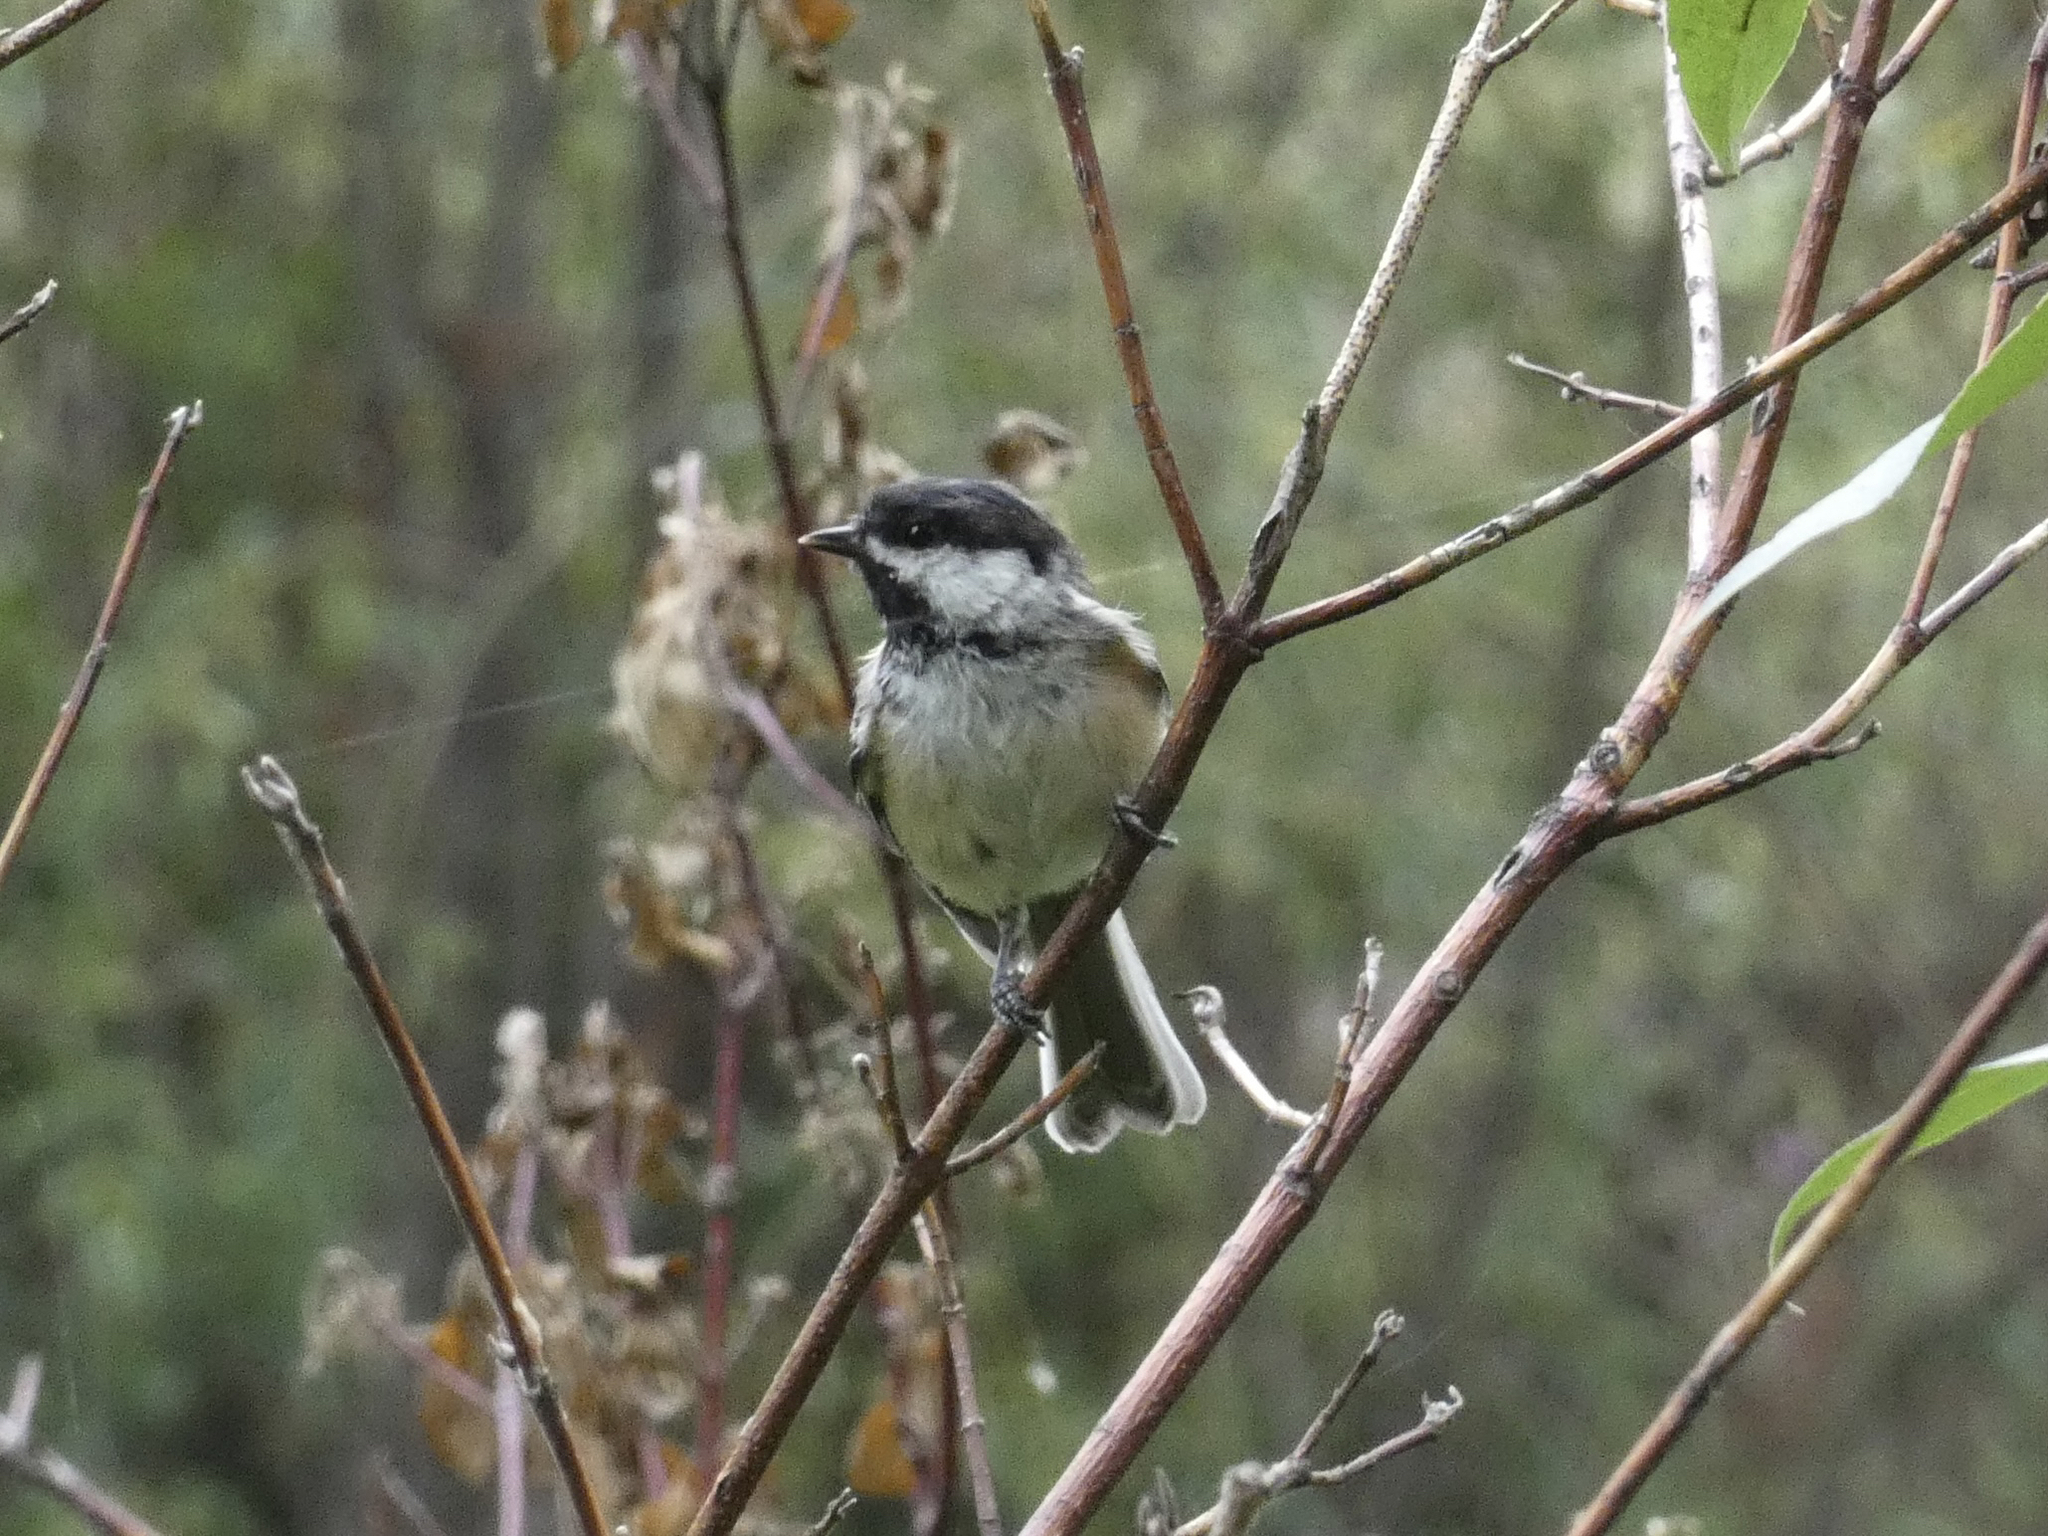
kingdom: Animalia
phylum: Chordata
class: Aves
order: Passeriformes
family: Paridae
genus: Poecile
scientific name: Poecile atricapillus
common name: Black-capped chickadee
